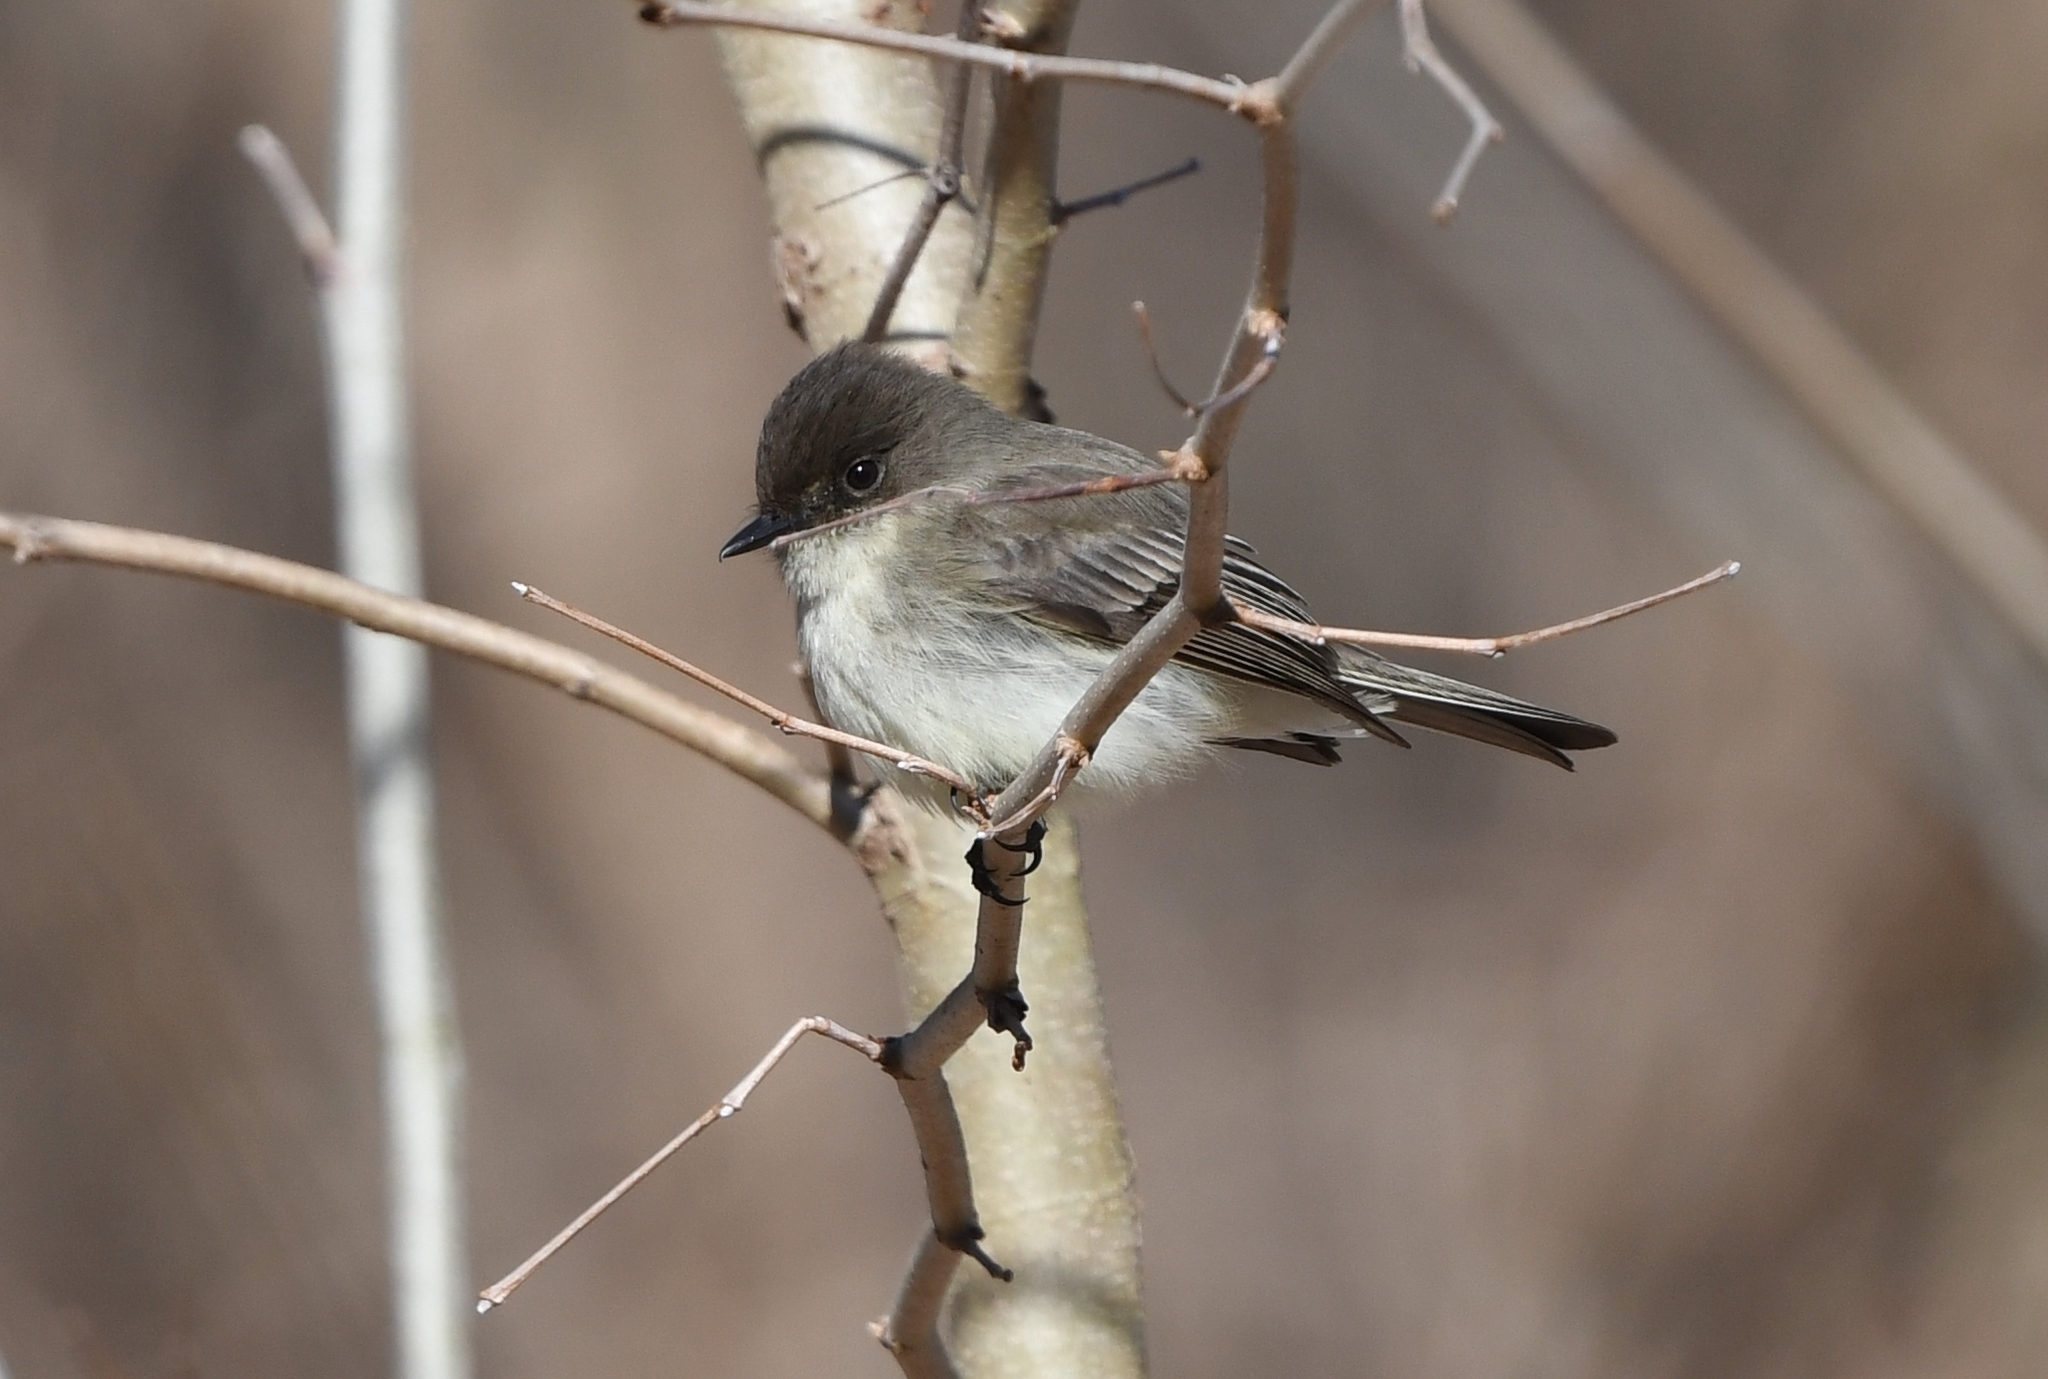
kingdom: Animalia
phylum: Chordata
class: Aves
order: Passeriformes
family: Tyrannidae
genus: Sayornis
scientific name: Sayornis phoebe
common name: Eastern phoebe
